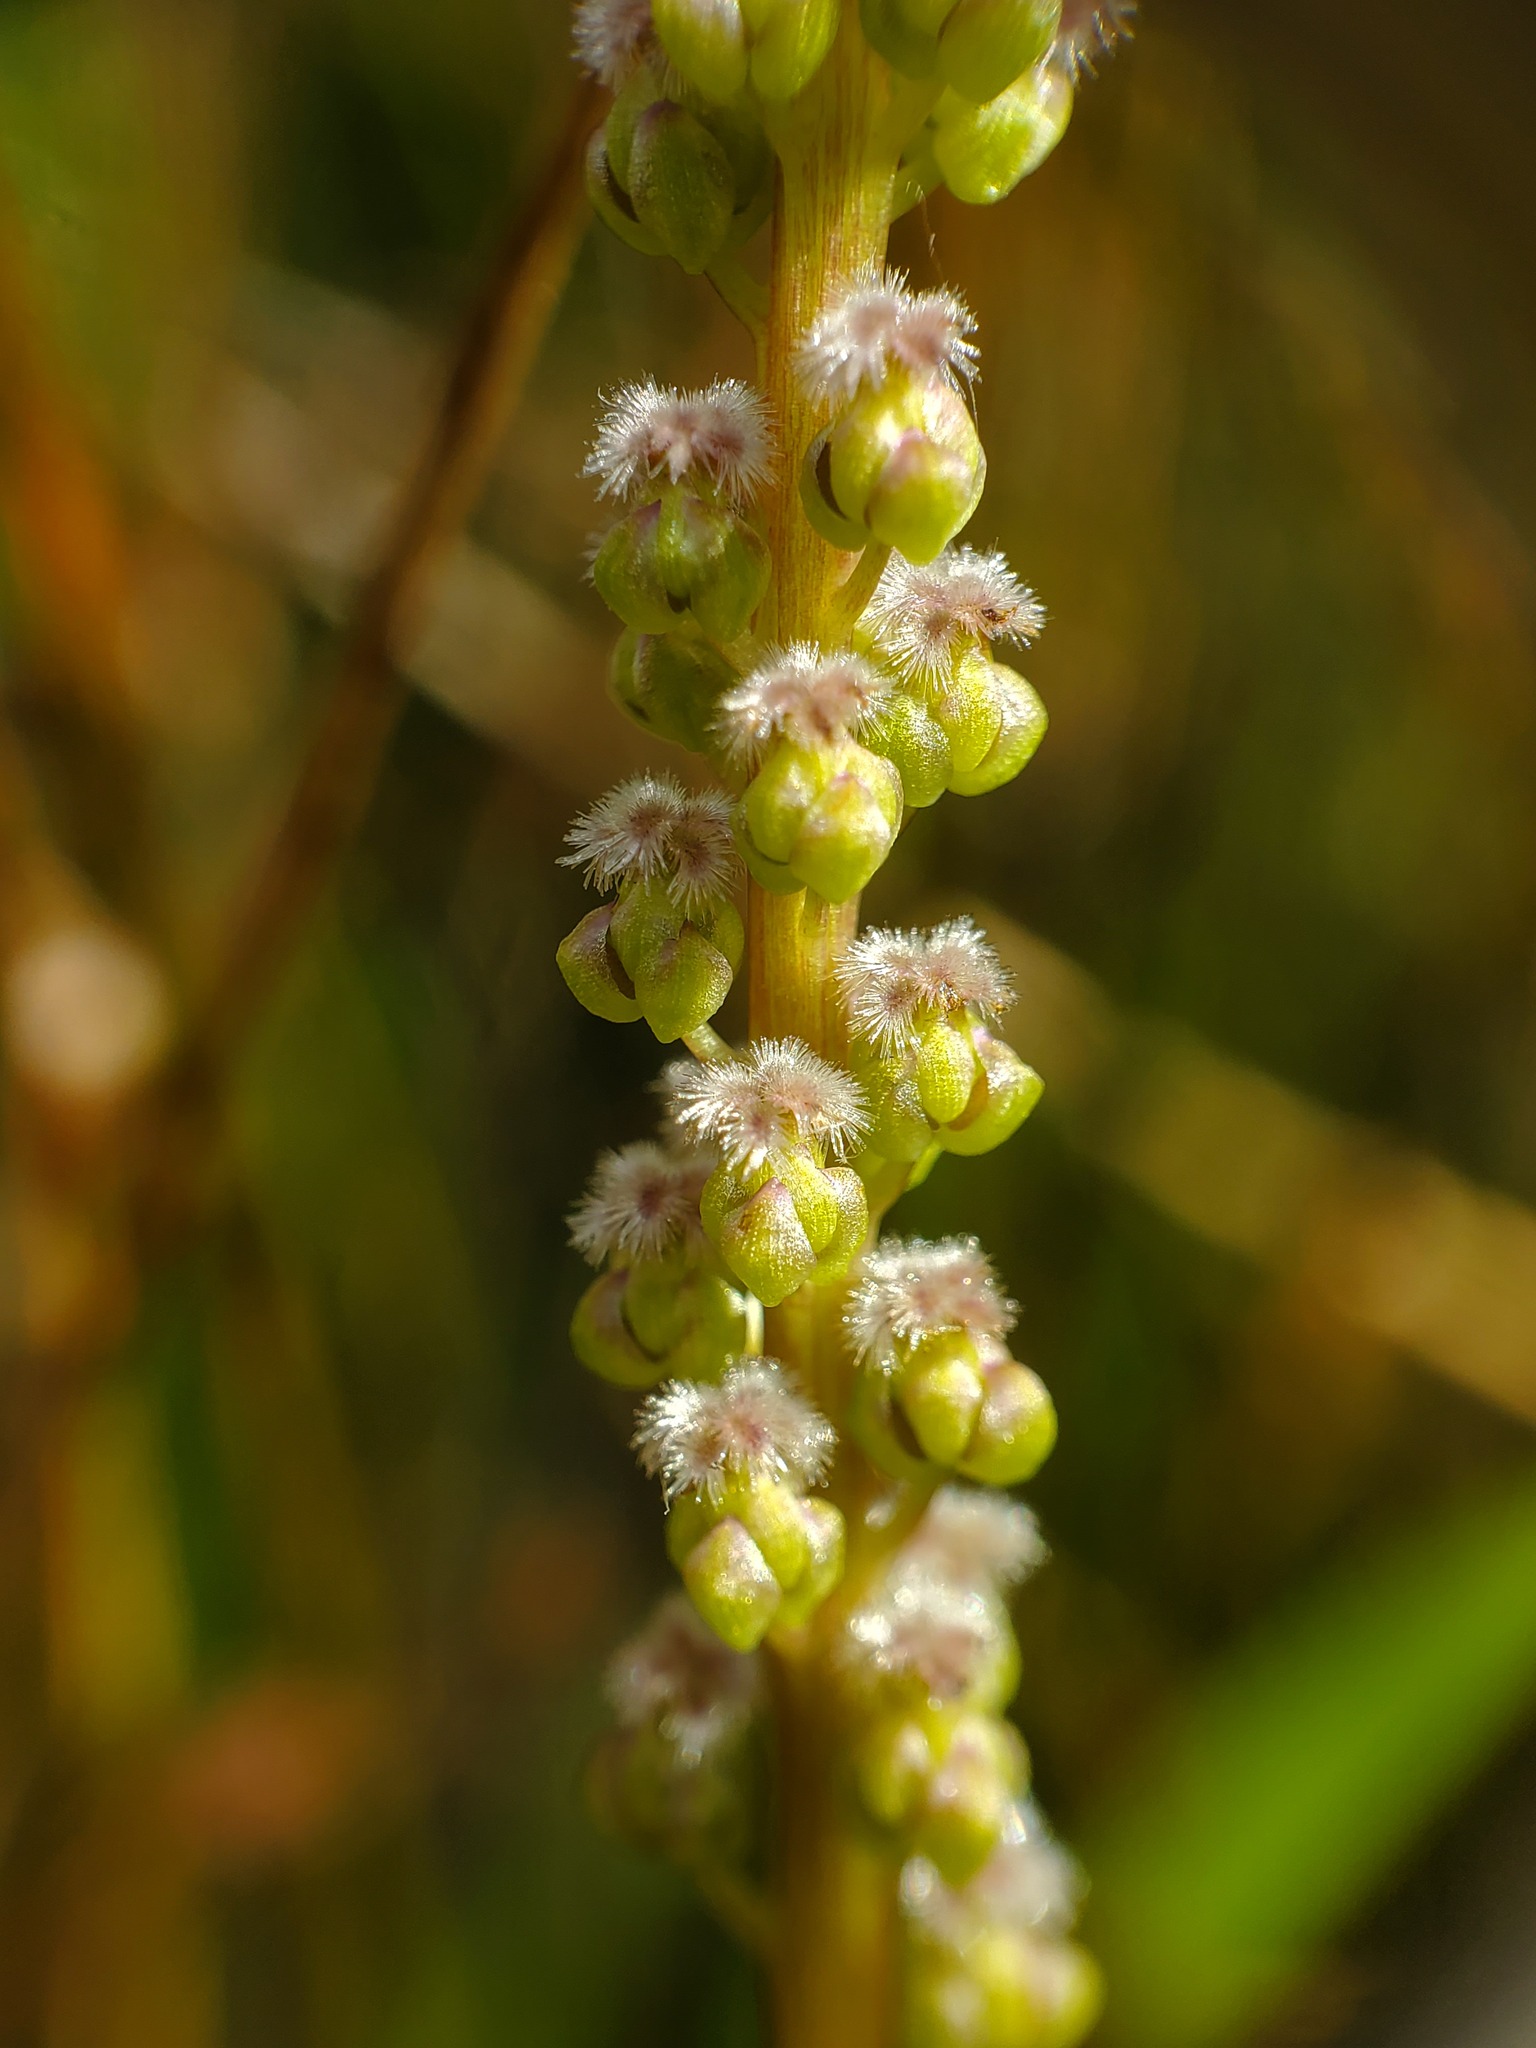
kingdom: Plantae
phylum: Tracheophyta
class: Liliopsida
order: Alismatales
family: Juncaginaceae
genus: Triglochin
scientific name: Triglochin maritima
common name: Sea arrowgrass
